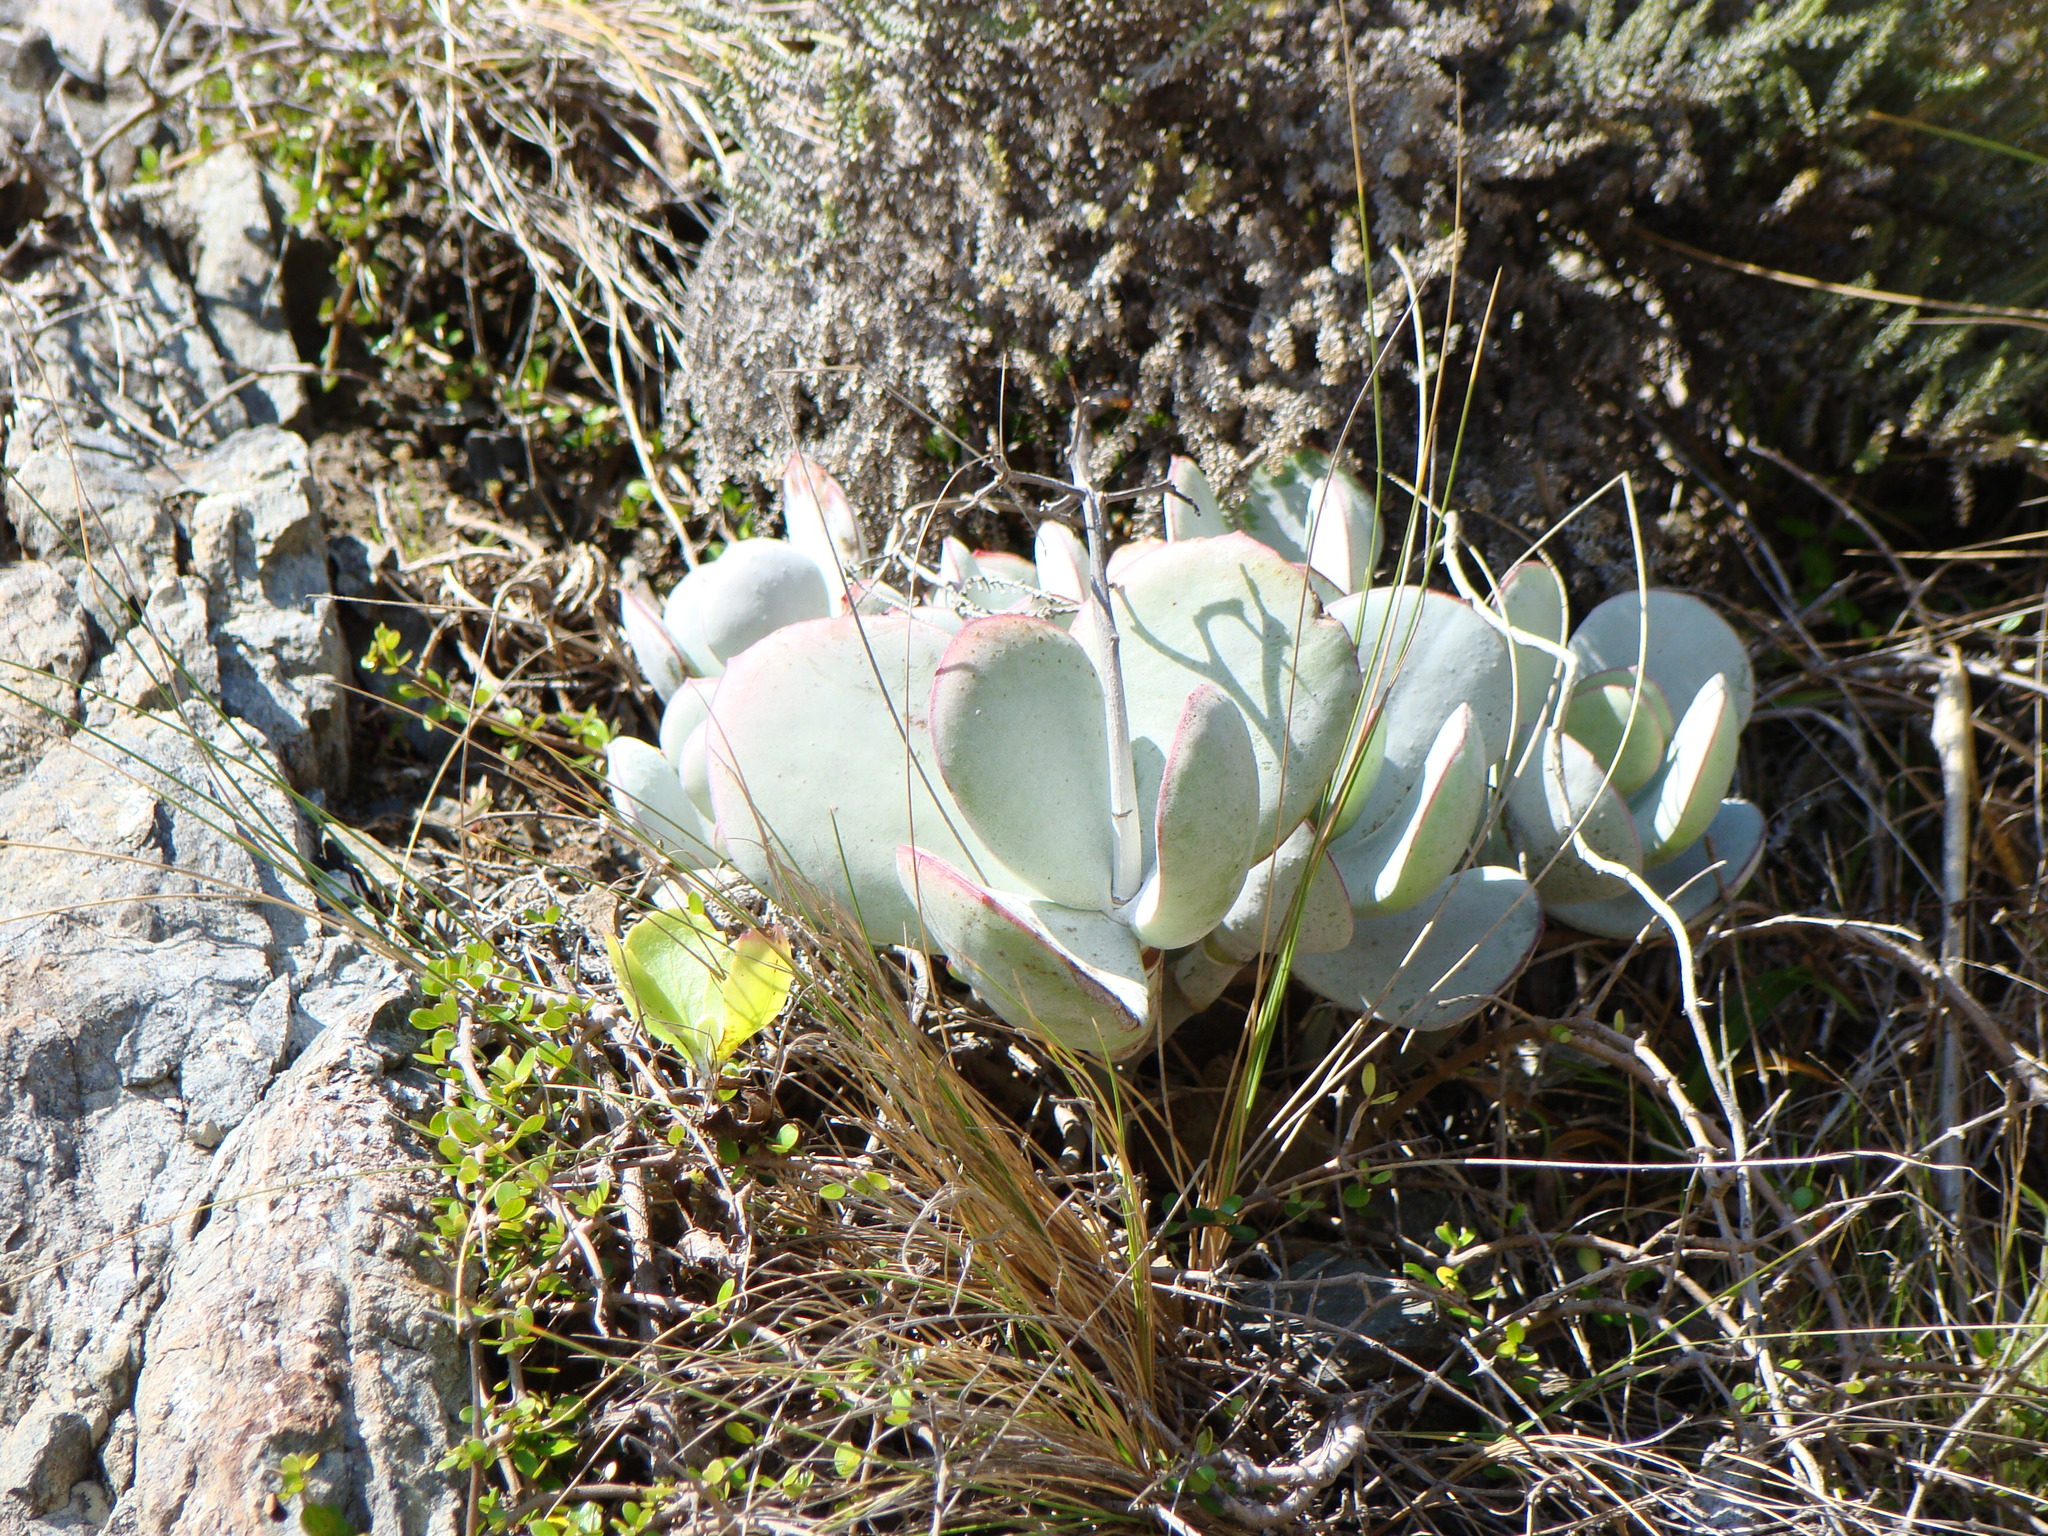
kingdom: Plantae
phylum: Tracheophyta
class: Magnoliopsida
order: Saxifragales
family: Crassulaceae
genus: Cotyledon
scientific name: Cotyledon orbiculata
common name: Pig's ear
